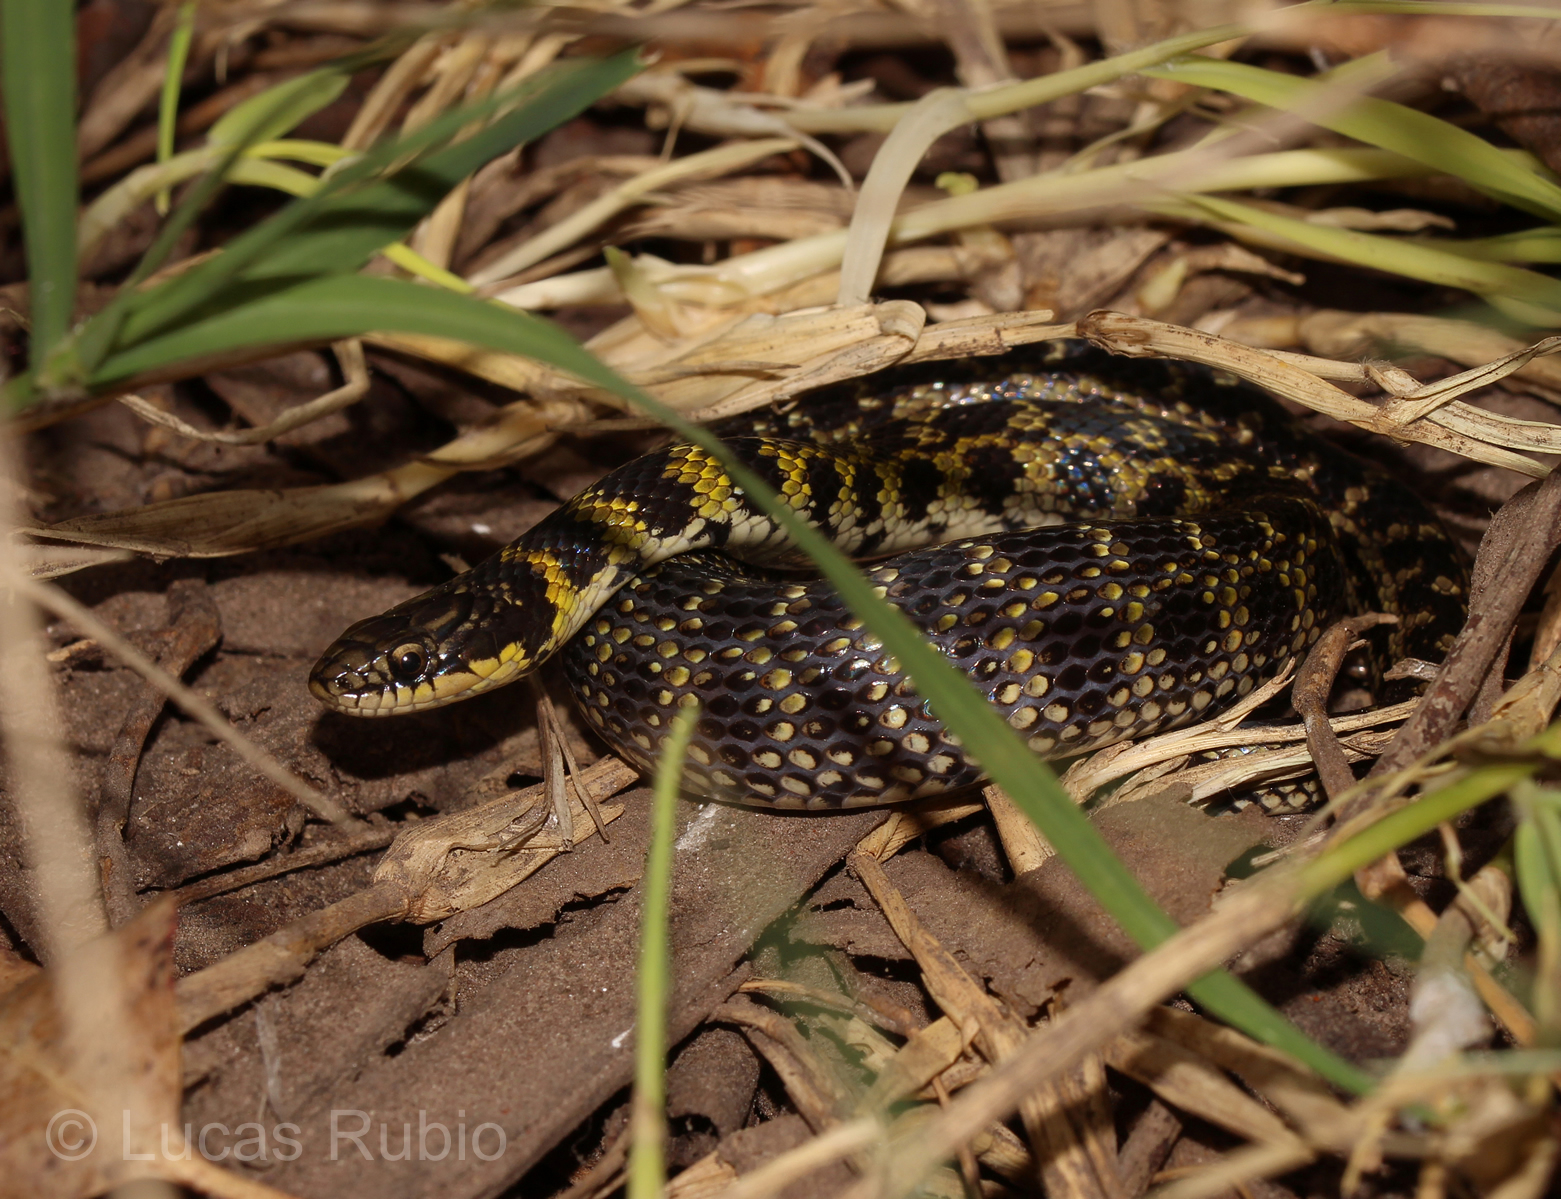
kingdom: Animalia
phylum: Chordata
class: Squamata
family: Colubridae
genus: Erythrolamprus
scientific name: Erythrolamprus poecilogyrus
